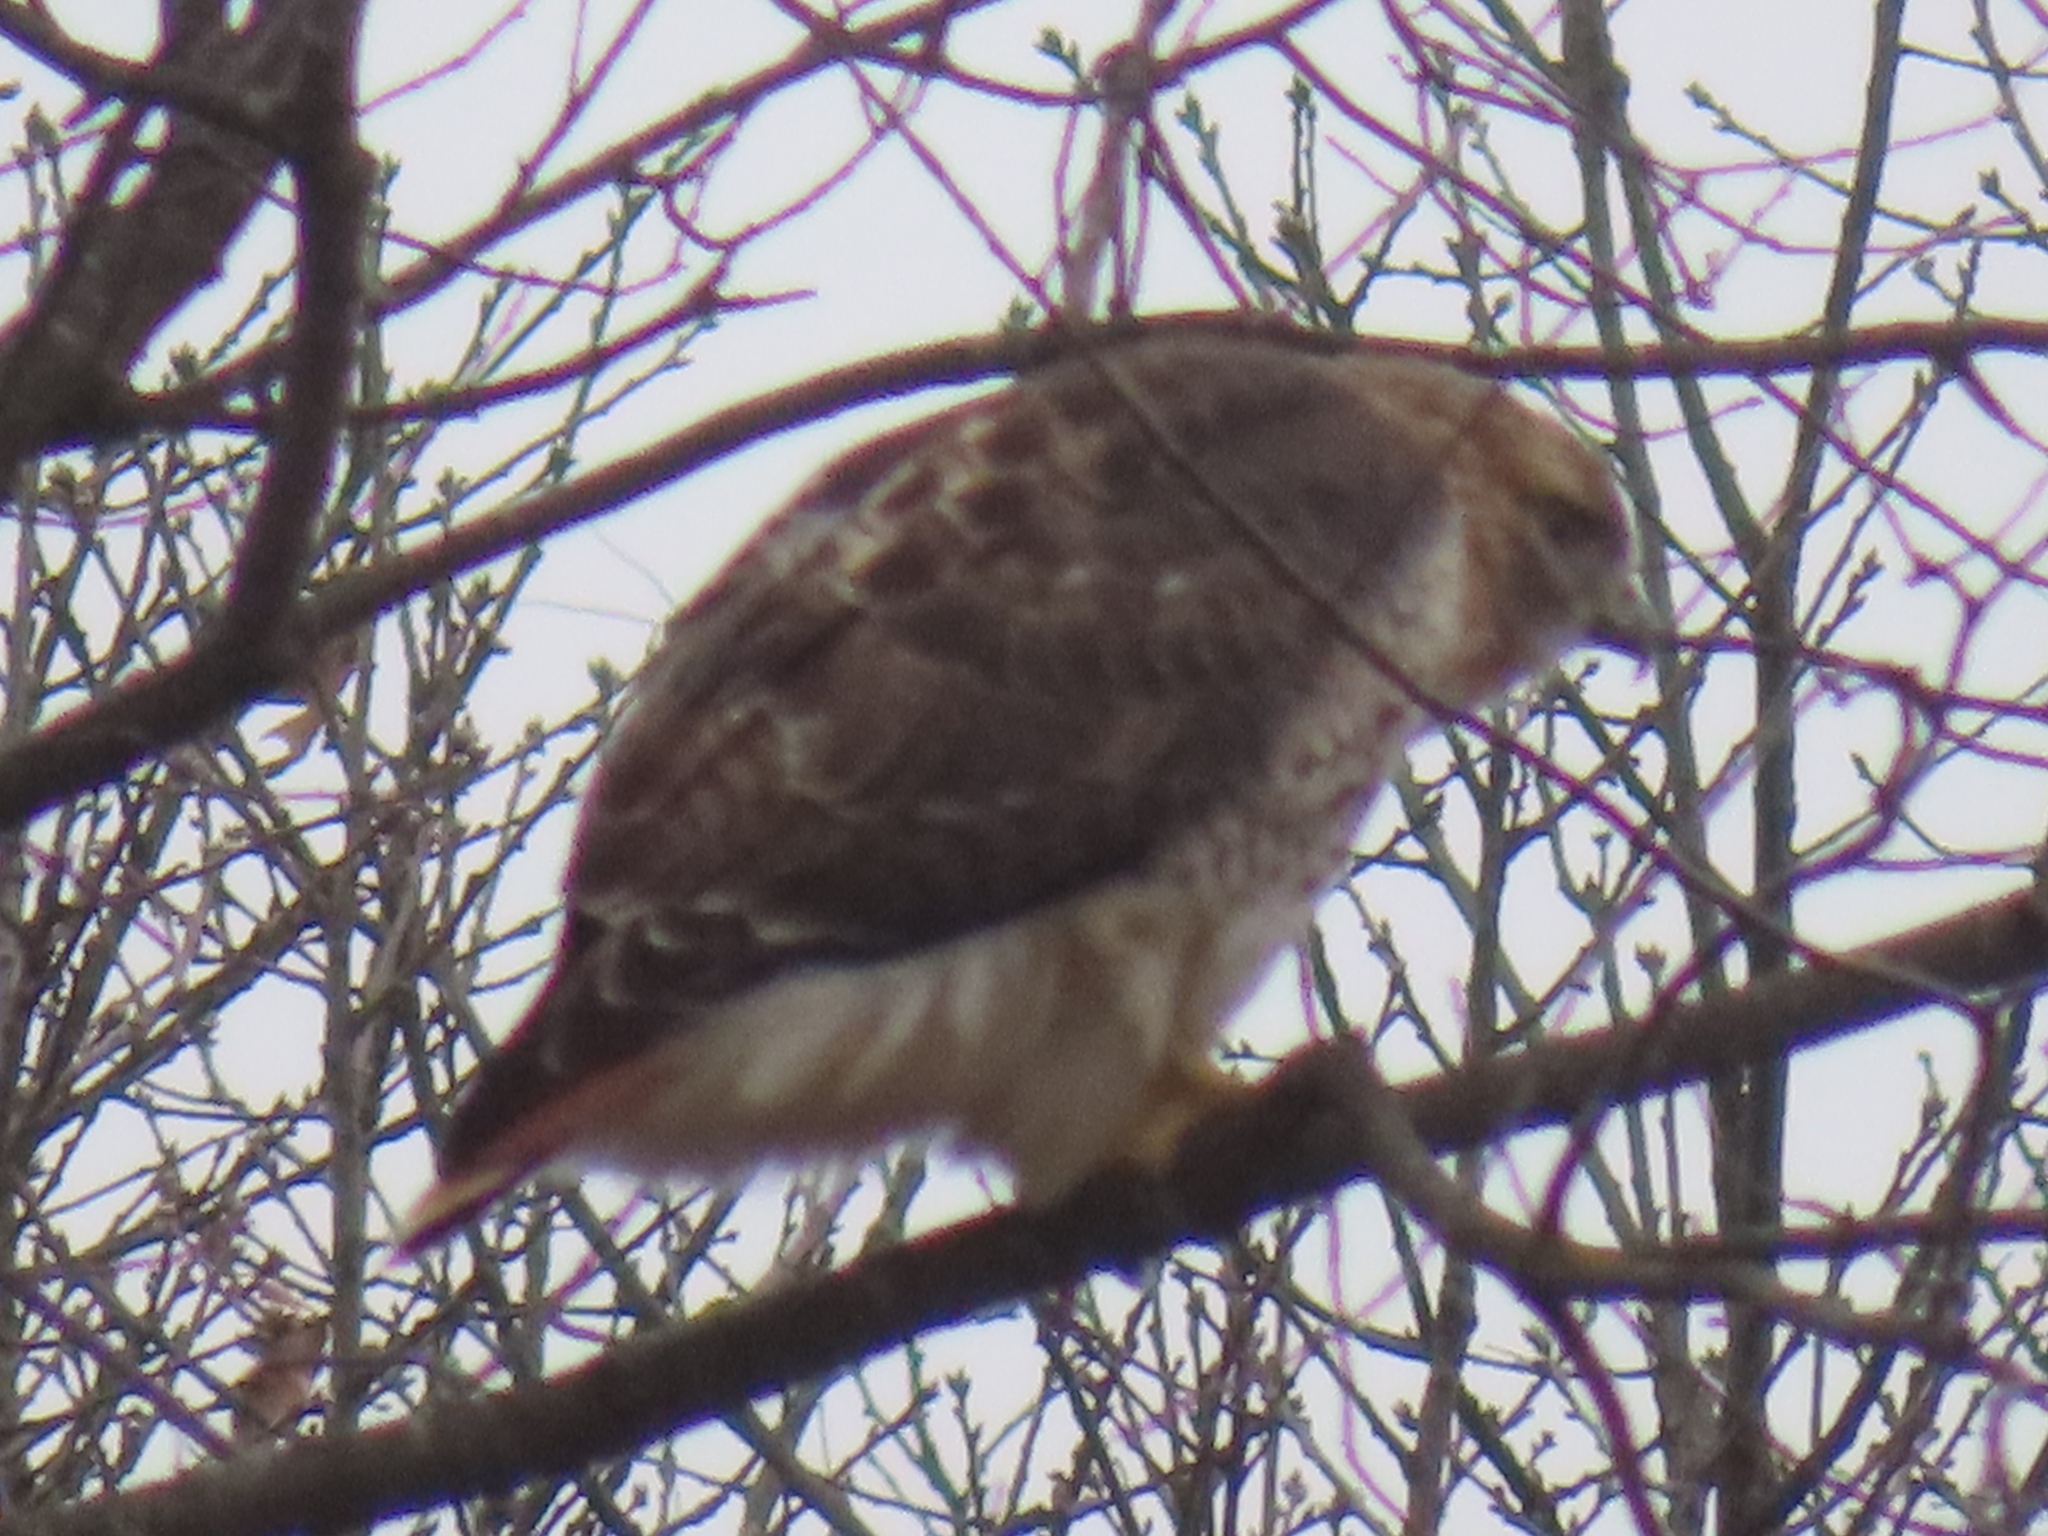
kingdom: Animalia
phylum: Chordata
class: Aves
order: Accipitriformes
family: Accipitridae
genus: Buteo
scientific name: Buteo jamaicensis
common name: Red-tailed hawk
